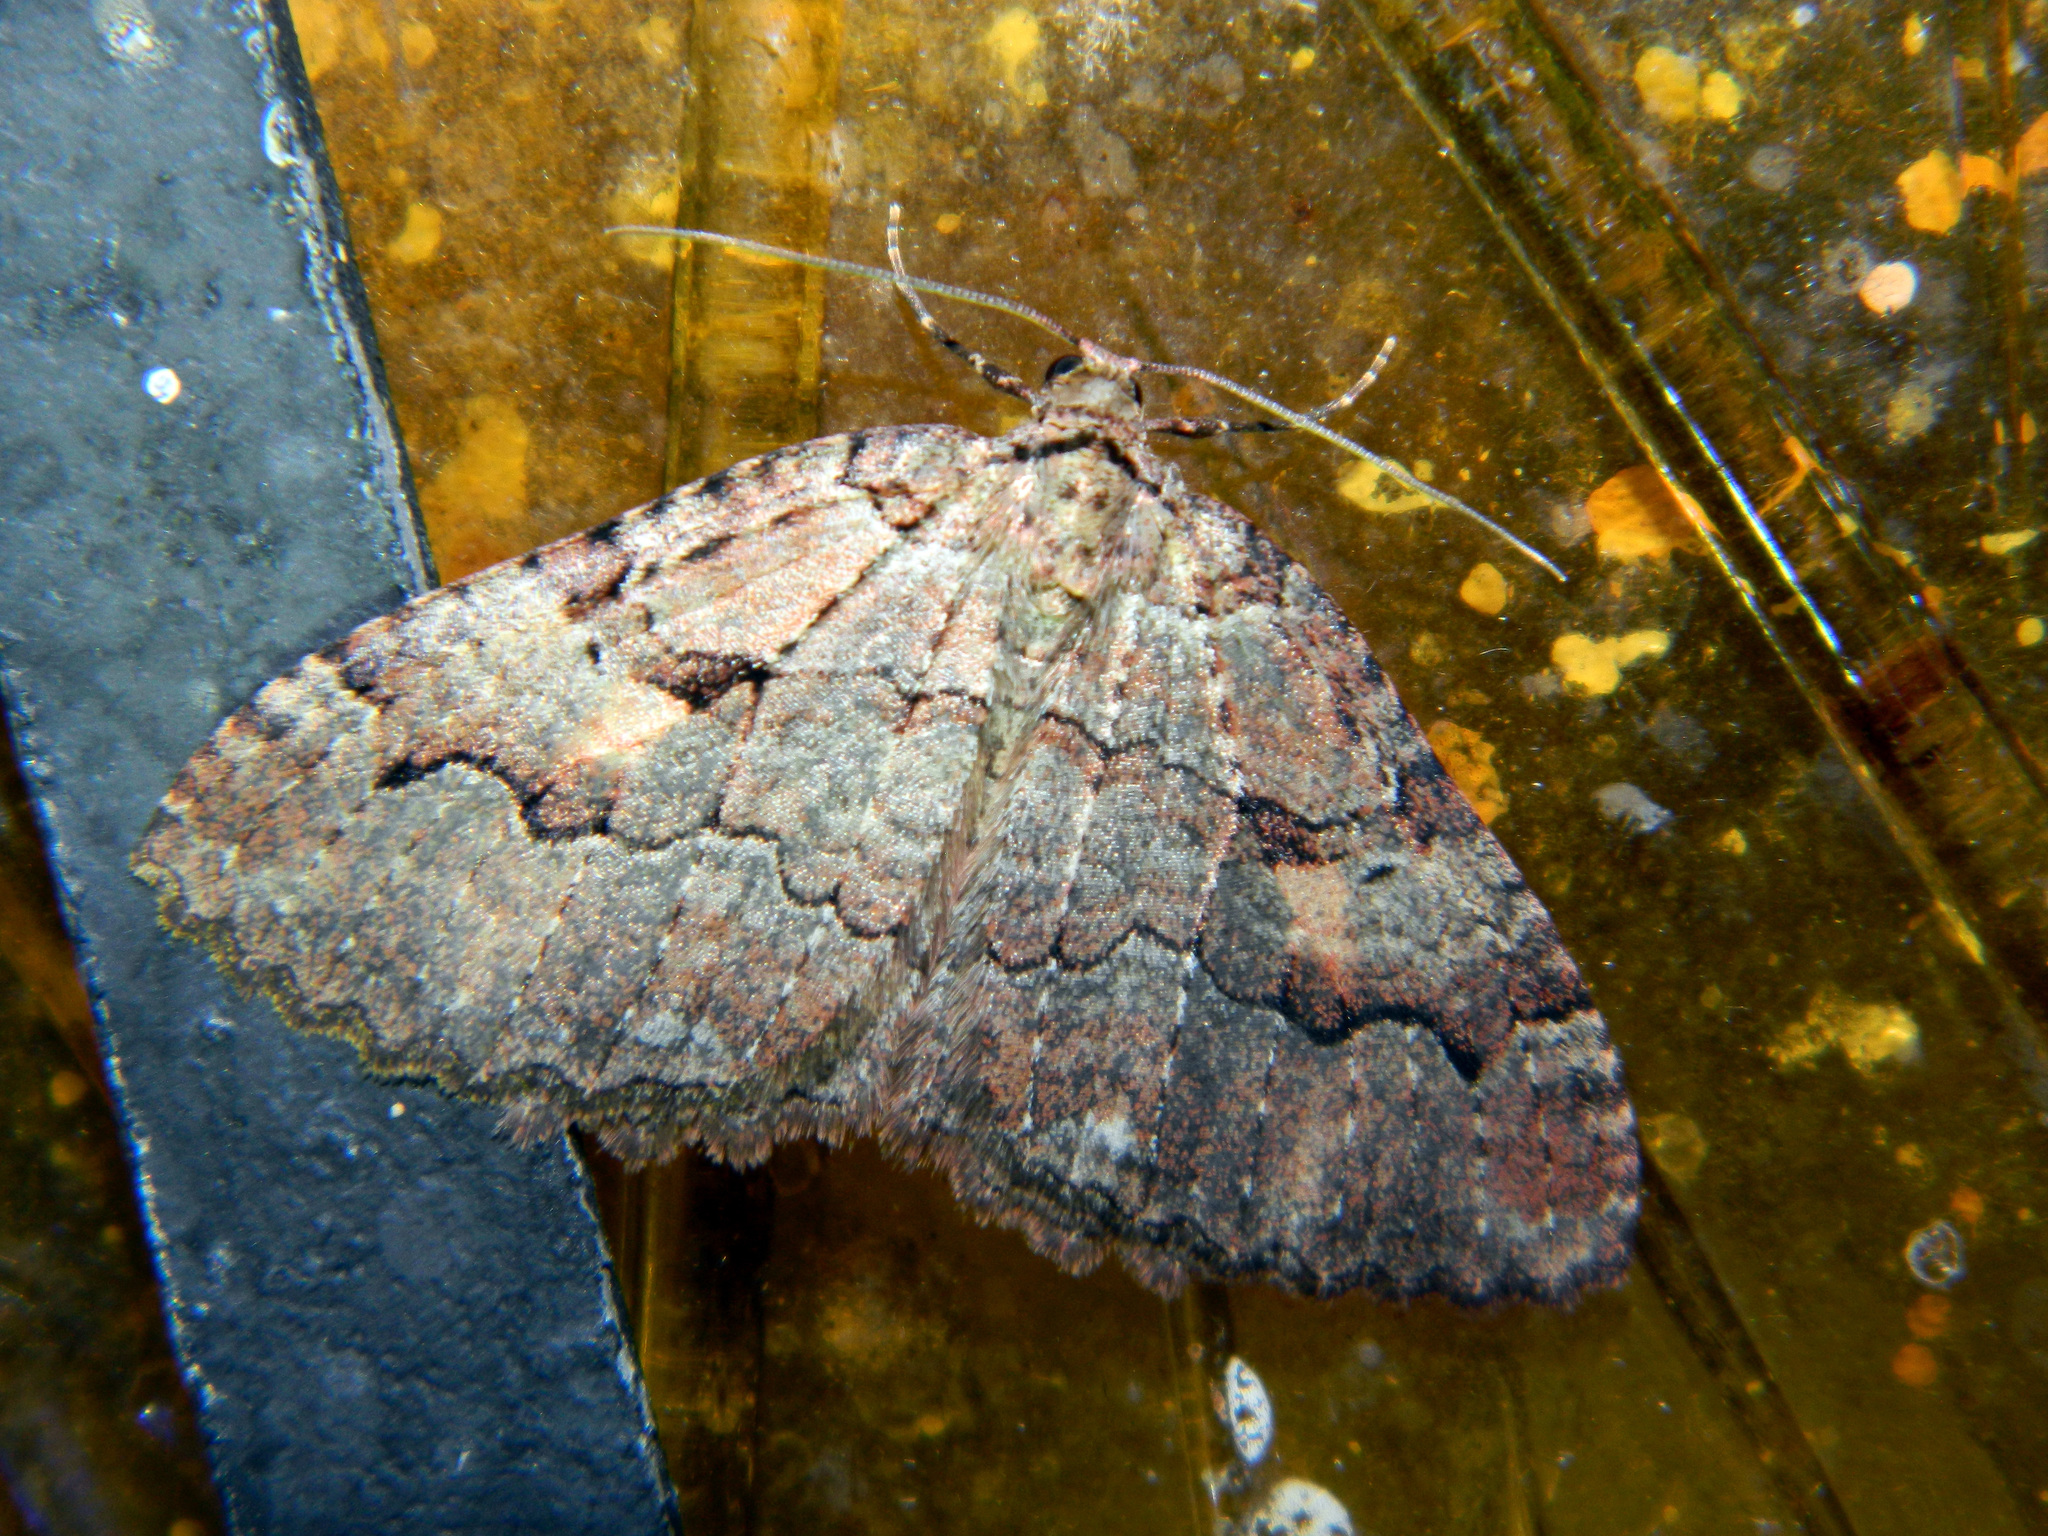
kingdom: Animalia
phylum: Arthropoda
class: Insecta
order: Lepidoptera
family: Geometridae
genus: Triphosa
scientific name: Triphosa haesitata
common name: Tissue moth
